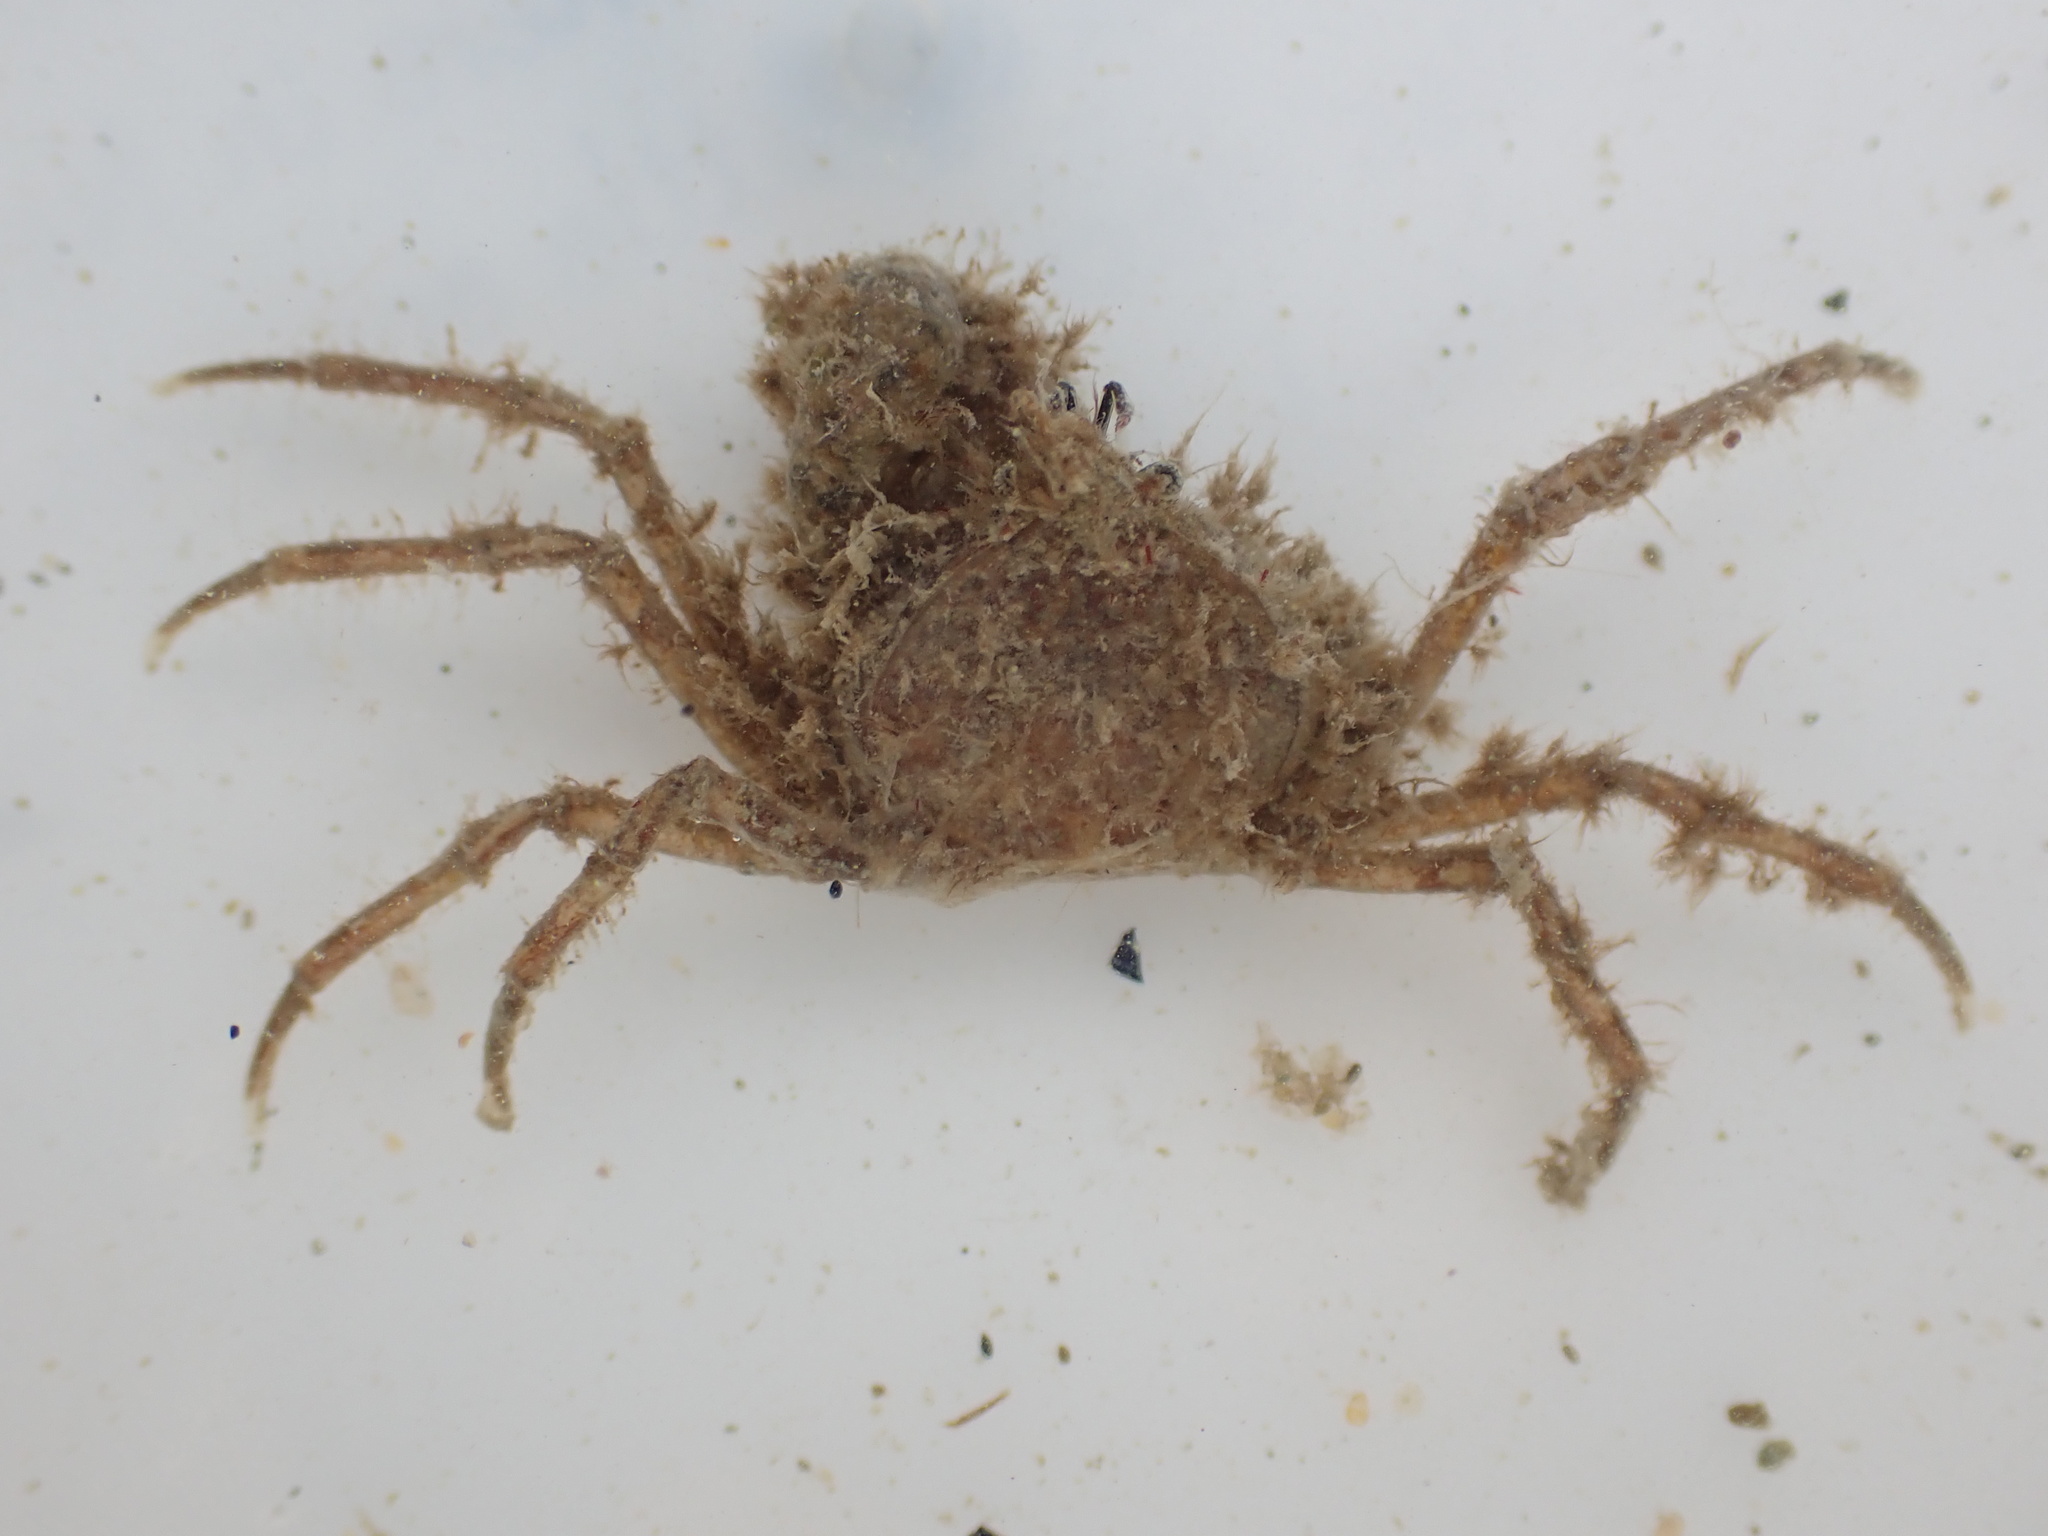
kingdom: Animalia
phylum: Arthropoda
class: Malacostraca
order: Decapoda
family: Hymenosomatidae
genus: Halicarcinus
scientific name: Halicarcinus whitei
